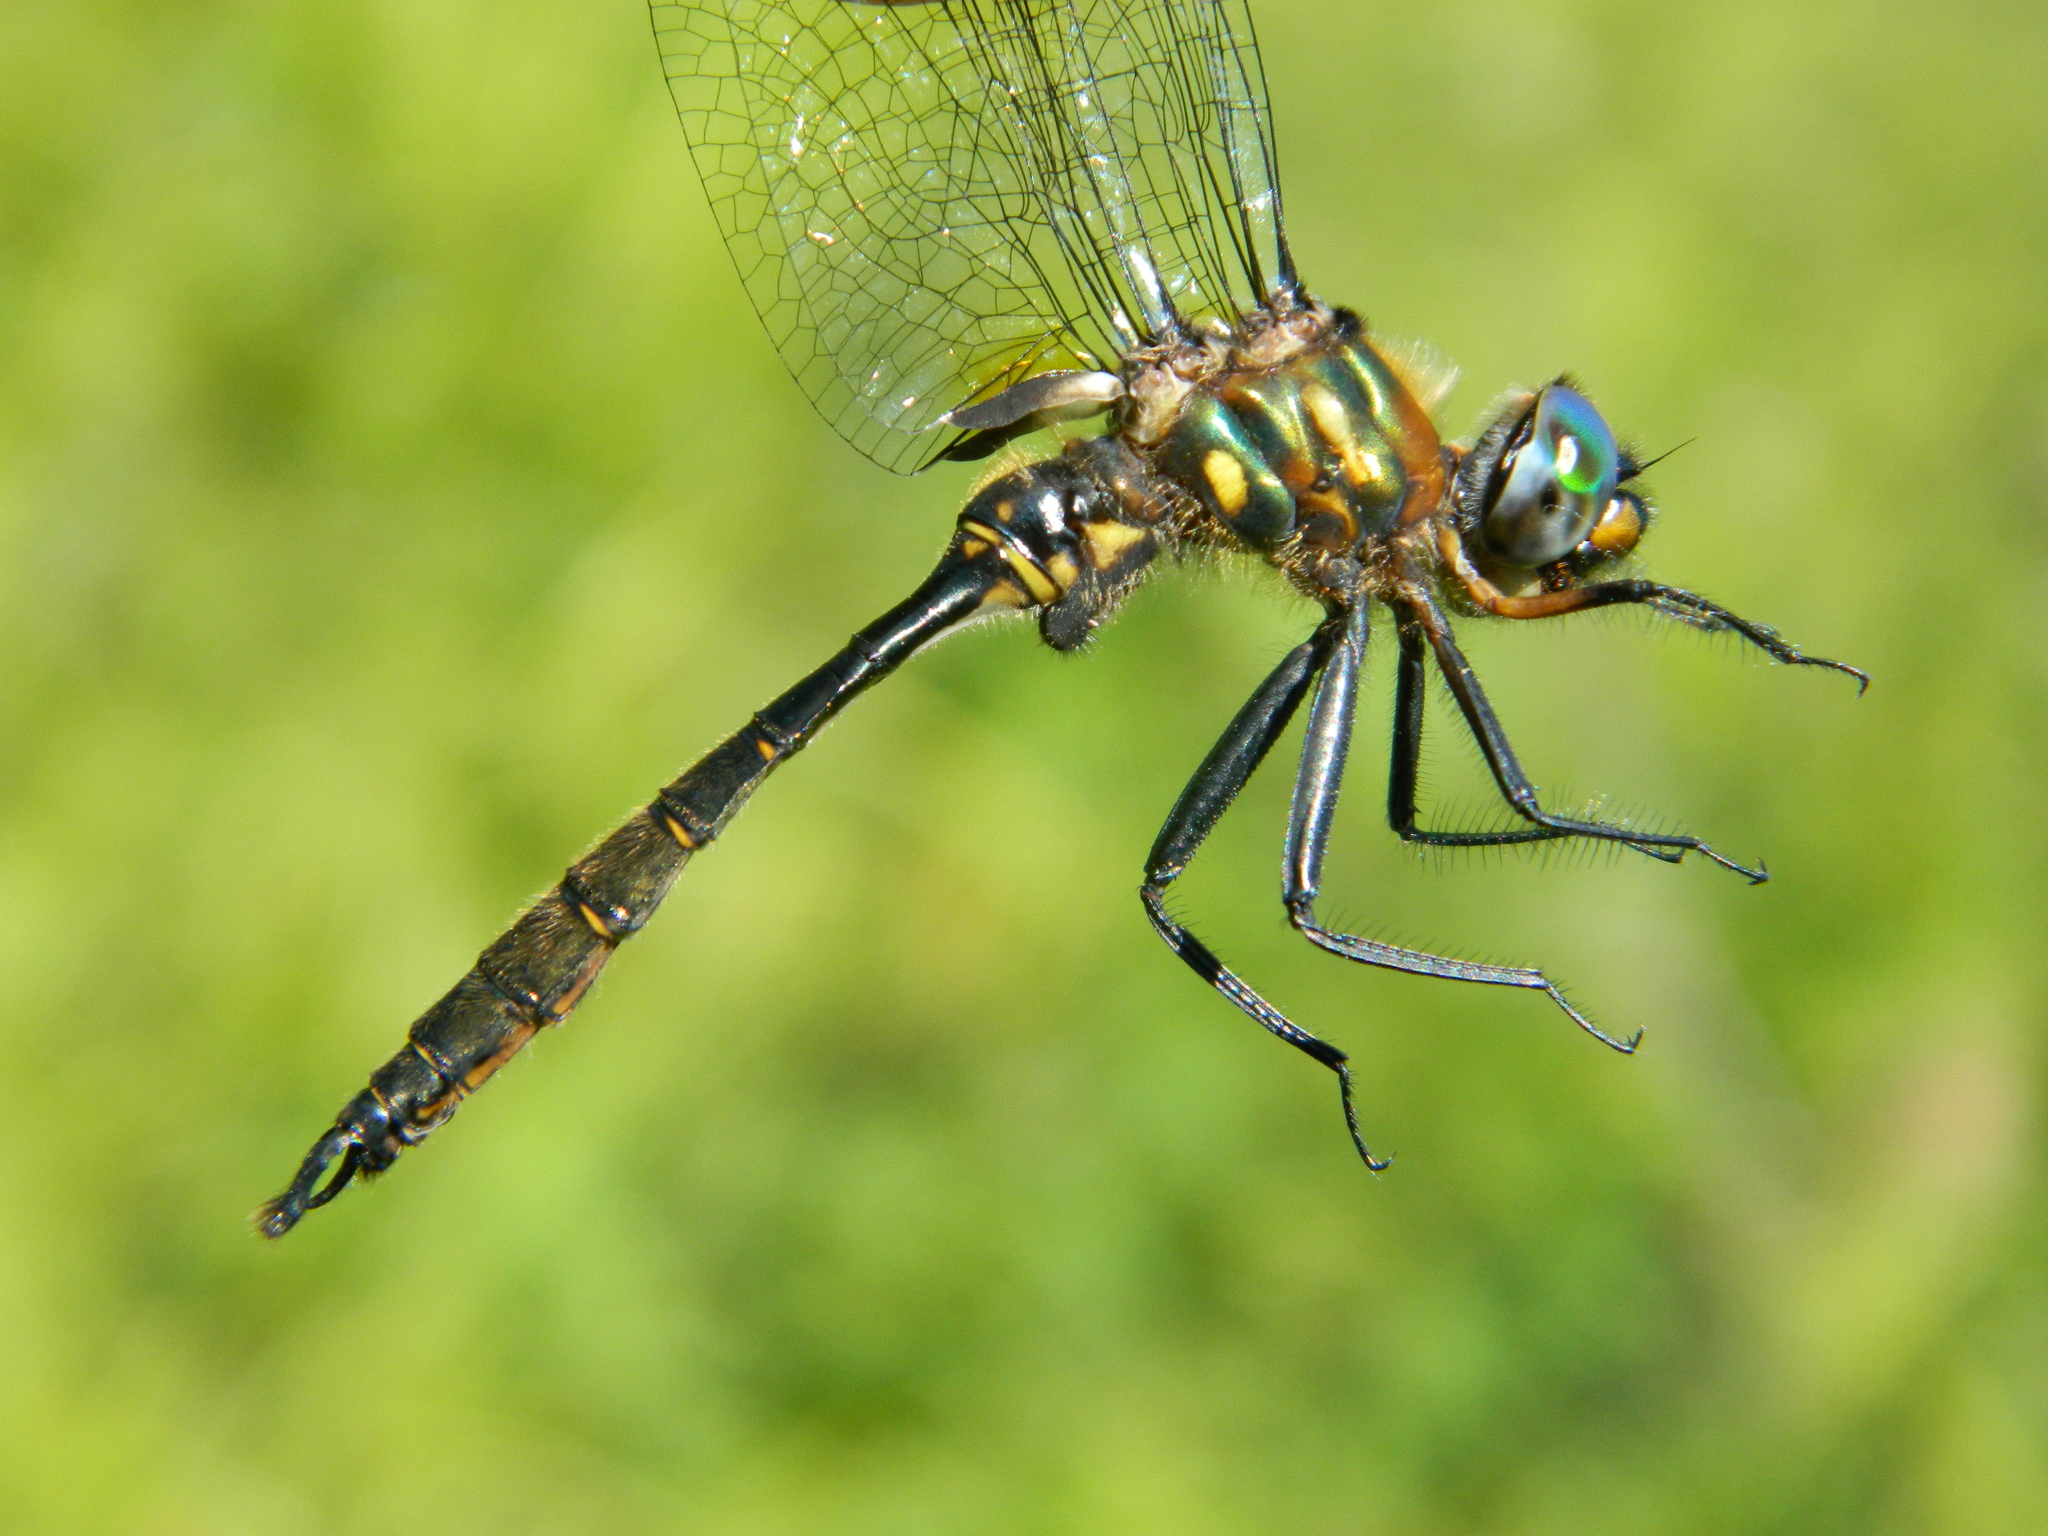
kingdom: Animalia
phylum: Arthropoda
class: Insecta
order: Odonata
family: Corduliidae
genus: Somatochlora
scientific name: Somatochlora walshii
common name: Brush-tipped emerald
